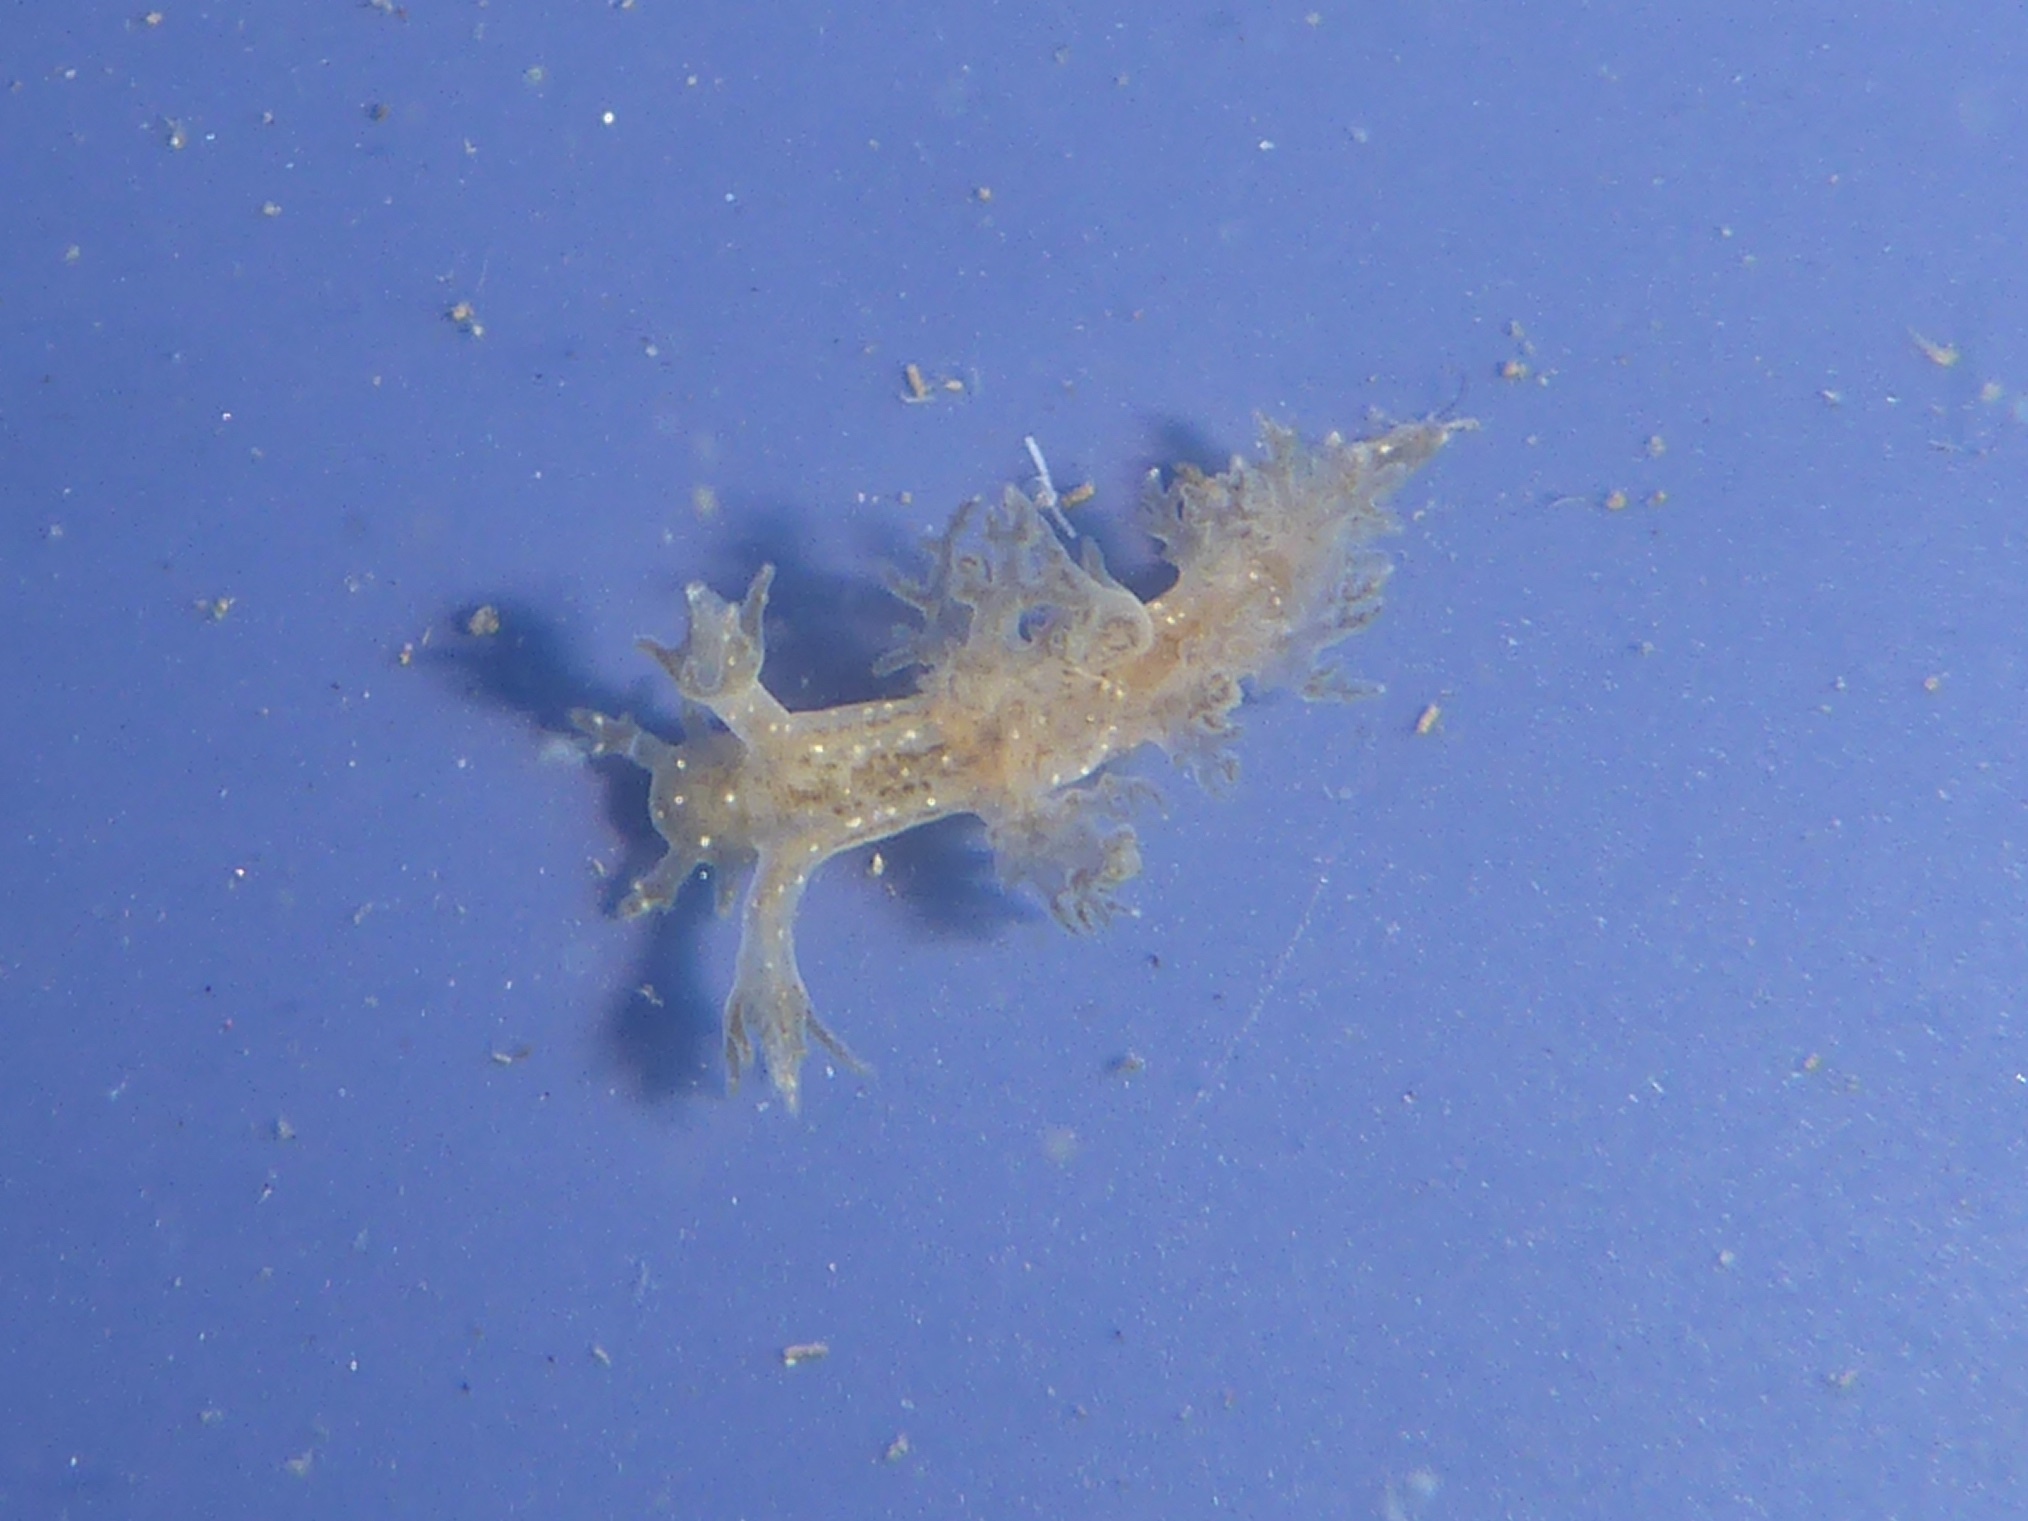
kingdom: Animalia
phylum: Mollusca
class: Gastropoda
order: Nudibranchia
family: Dendronotidae
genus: Dendronotus
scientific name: Dendronotus subramosus
